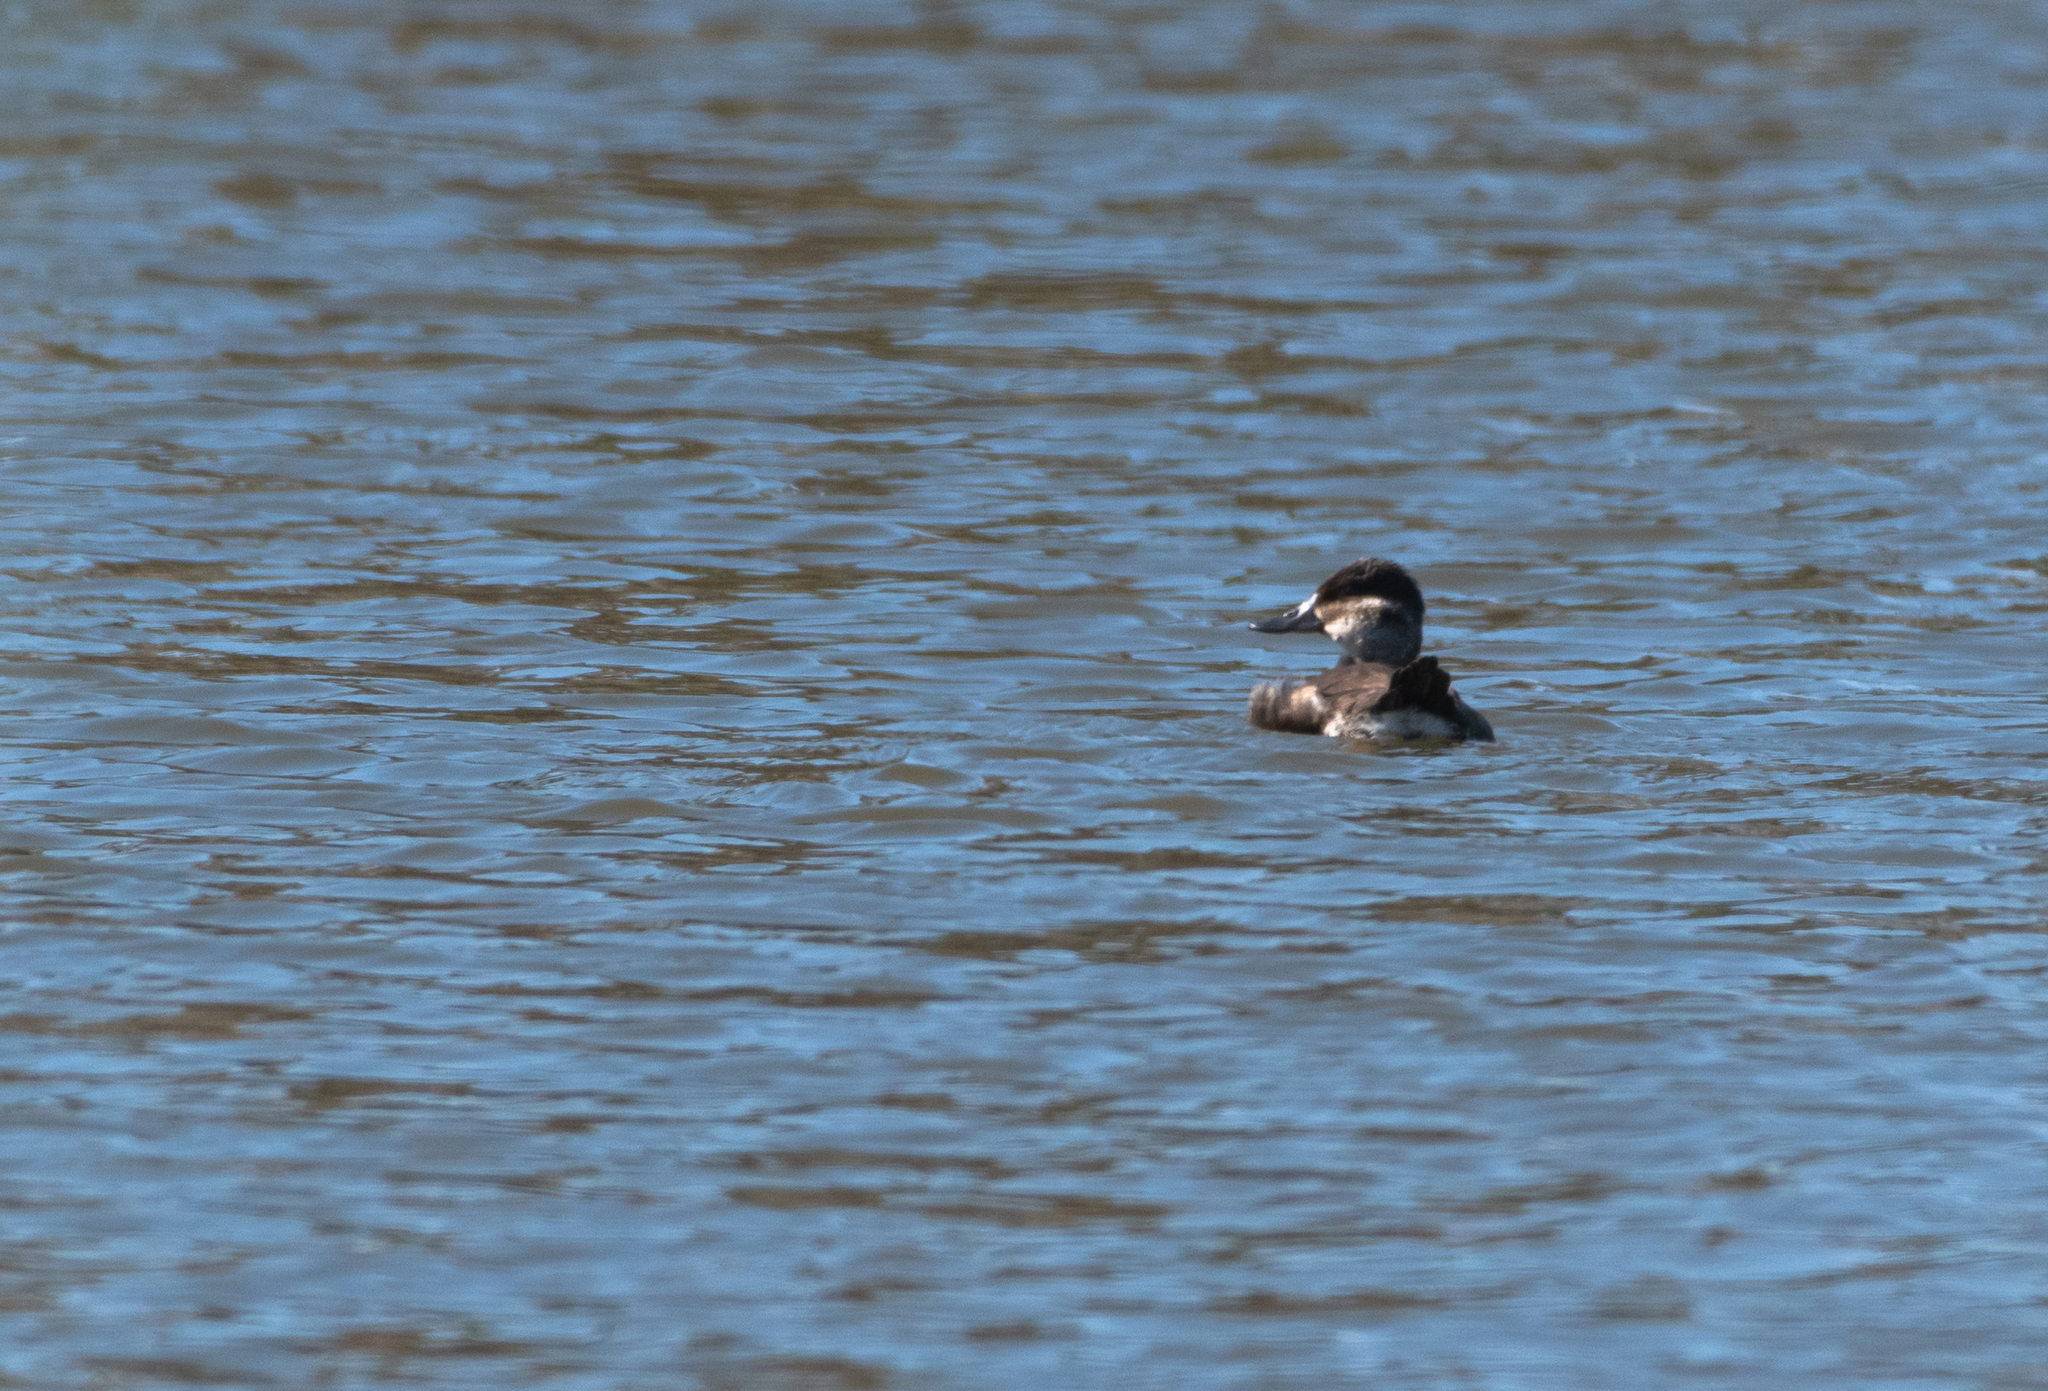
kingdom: Animalia
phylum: Chordata
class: Aves
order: Anseriformes
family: Anatidae
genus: Oxyura
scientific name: Oxyura jamaicensis
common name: Ruddy duck
